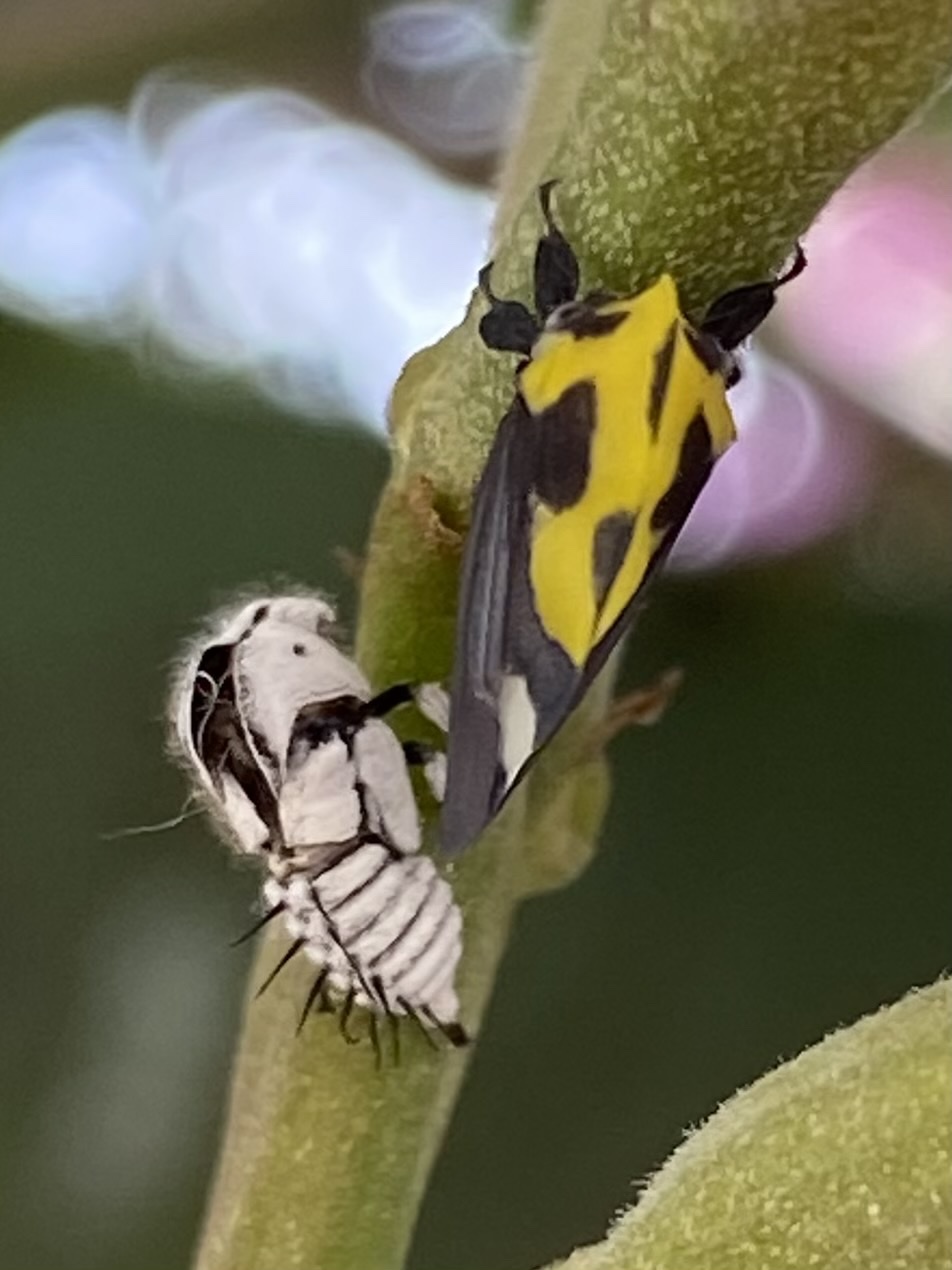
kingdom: Animalia
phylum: Arthropoda
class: Insecta
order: Hemiptera
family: Membracidae
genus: Membracis
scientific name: Membracis mexicana
